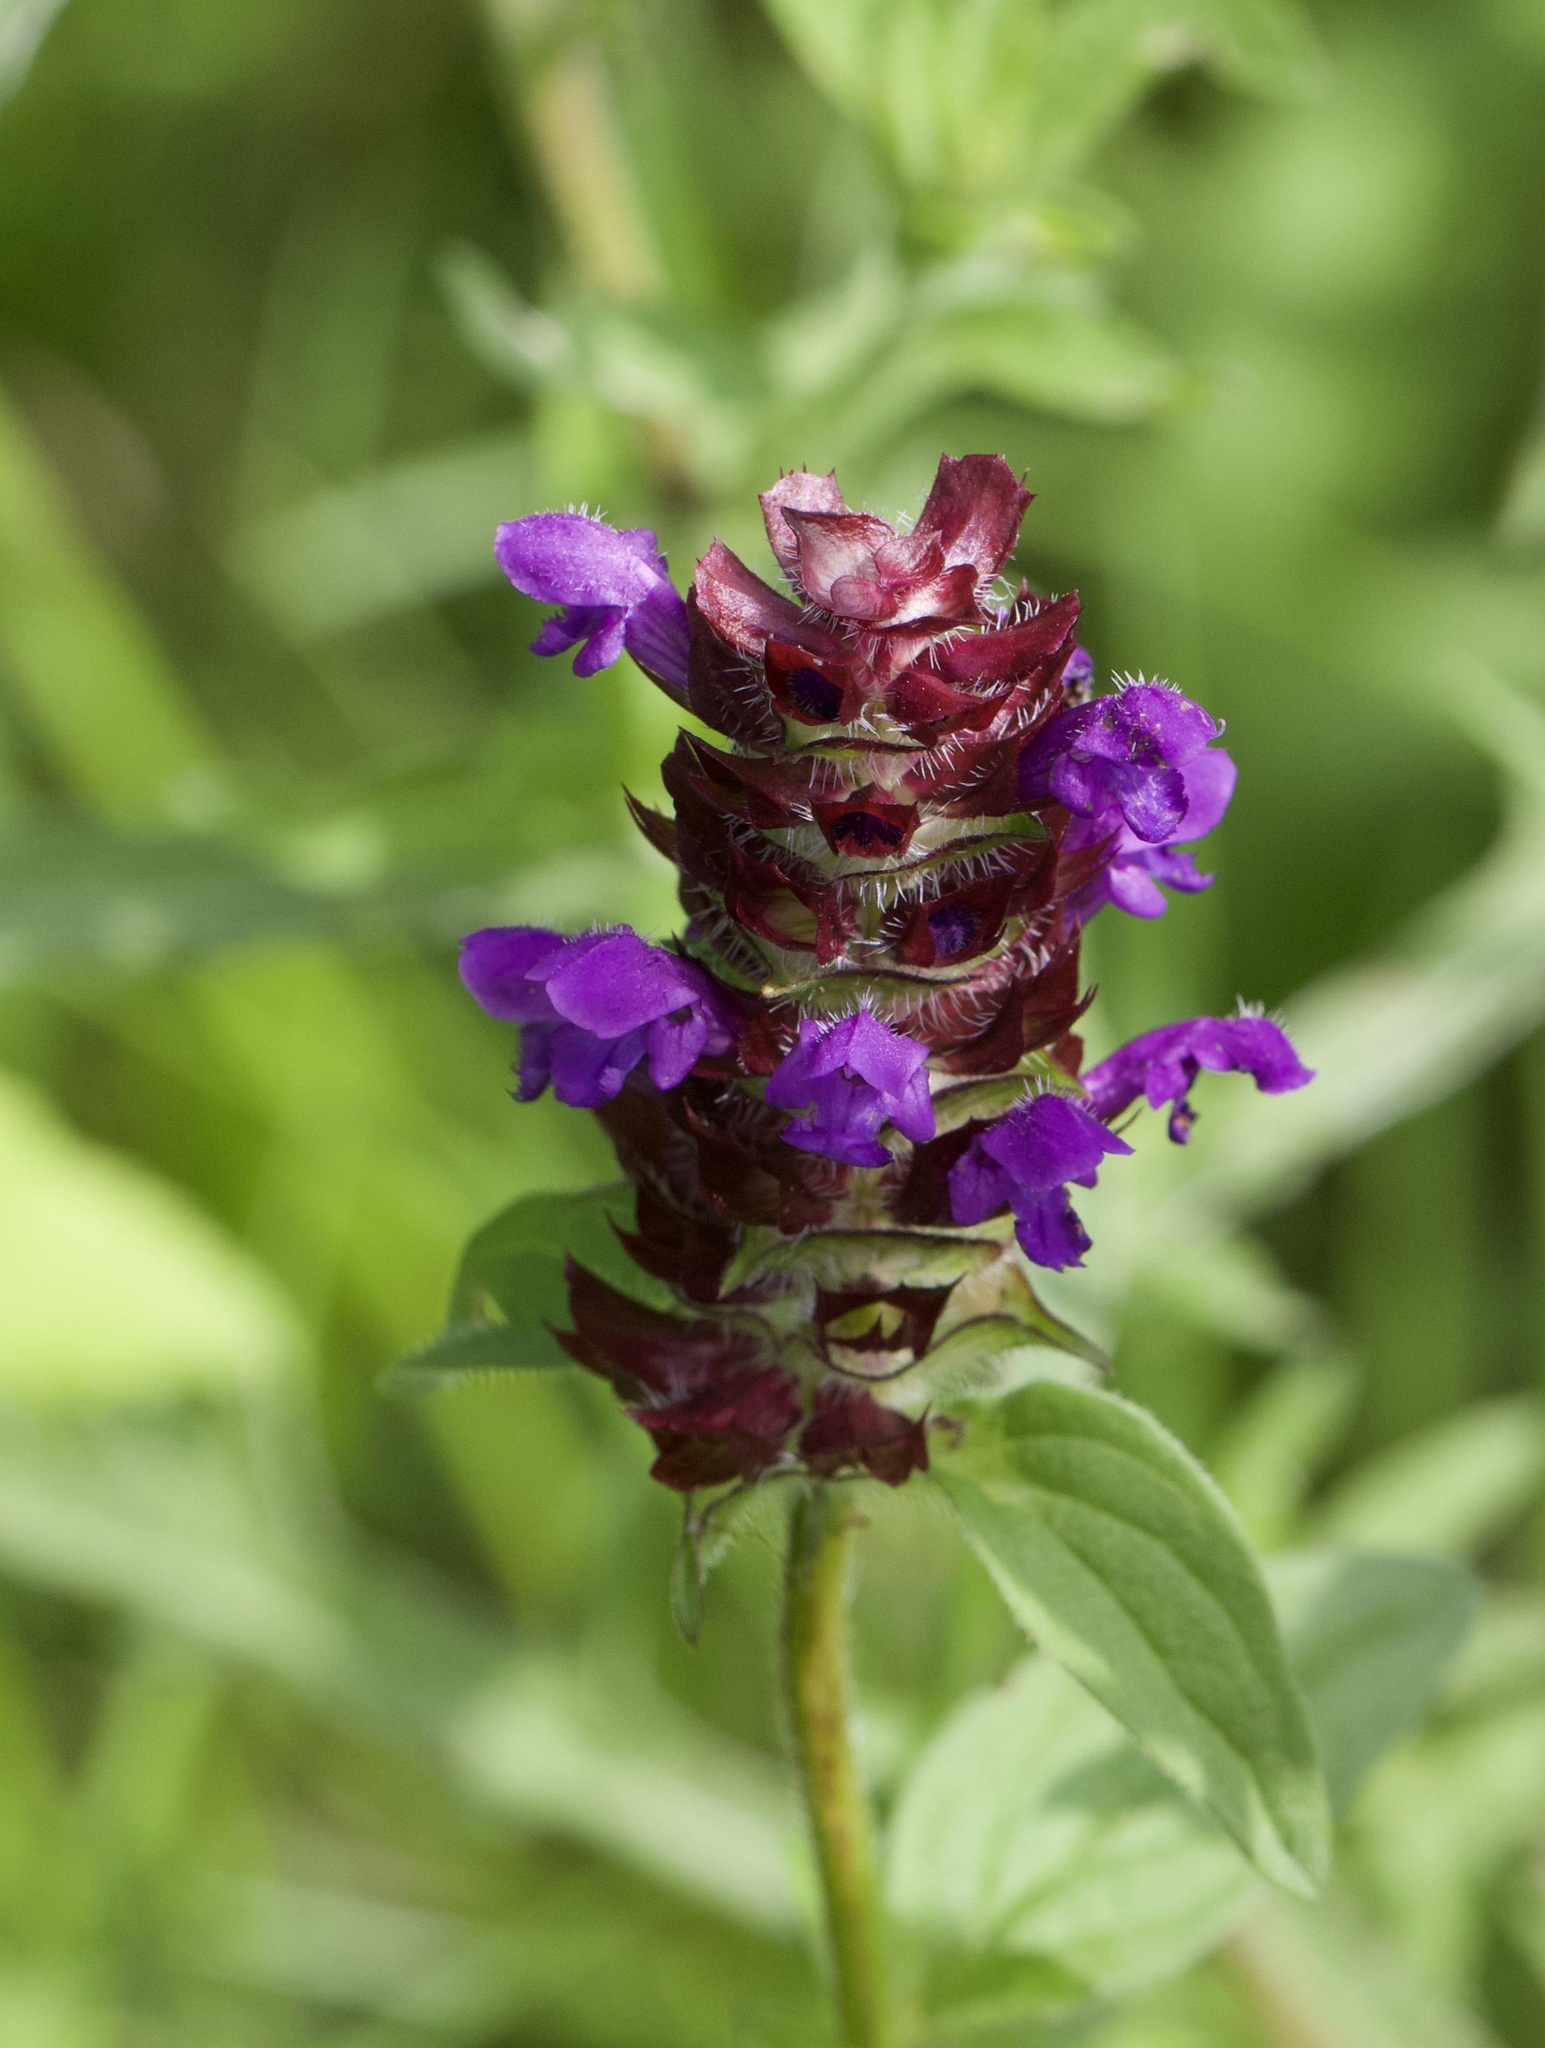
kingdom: Plantae
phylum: Tracheophyta
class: Magnoliopsida
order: Lamiales
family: Lamiaceae
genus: Prunella
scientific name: Prunella vulgaris
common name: Heal-all
